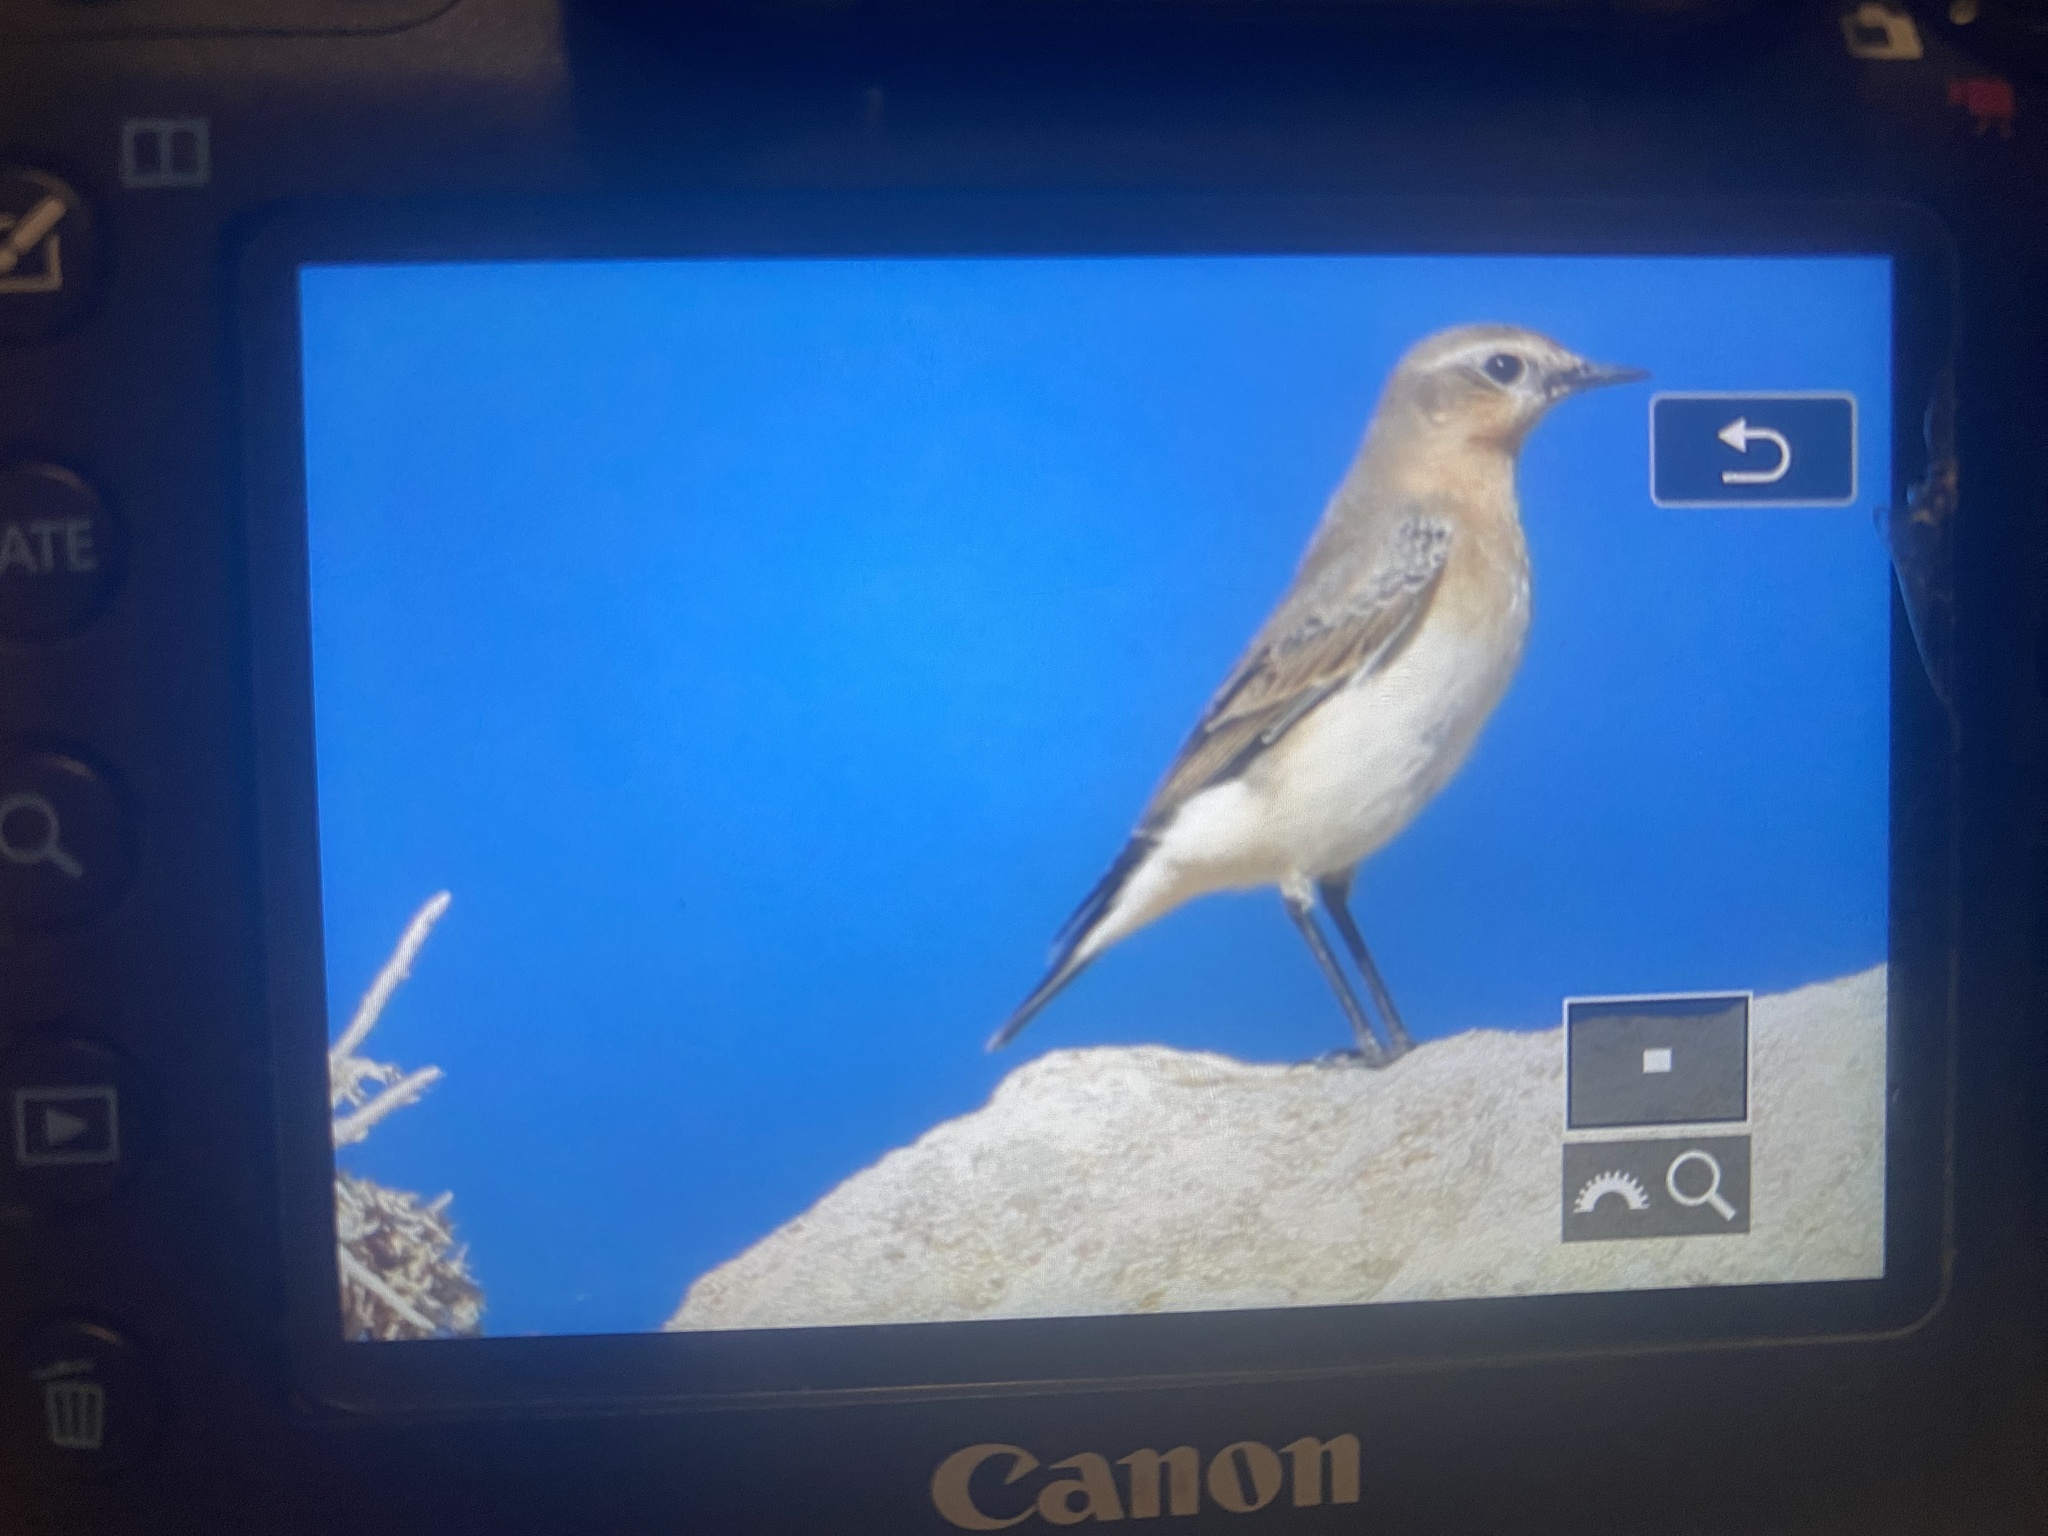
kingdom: Animalia
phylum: Chordata
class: Aves
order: Passeriformes
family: Muscicapidae
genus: Oenanthe
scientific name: Oenanthe oenanthe
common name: Northern wheatear
